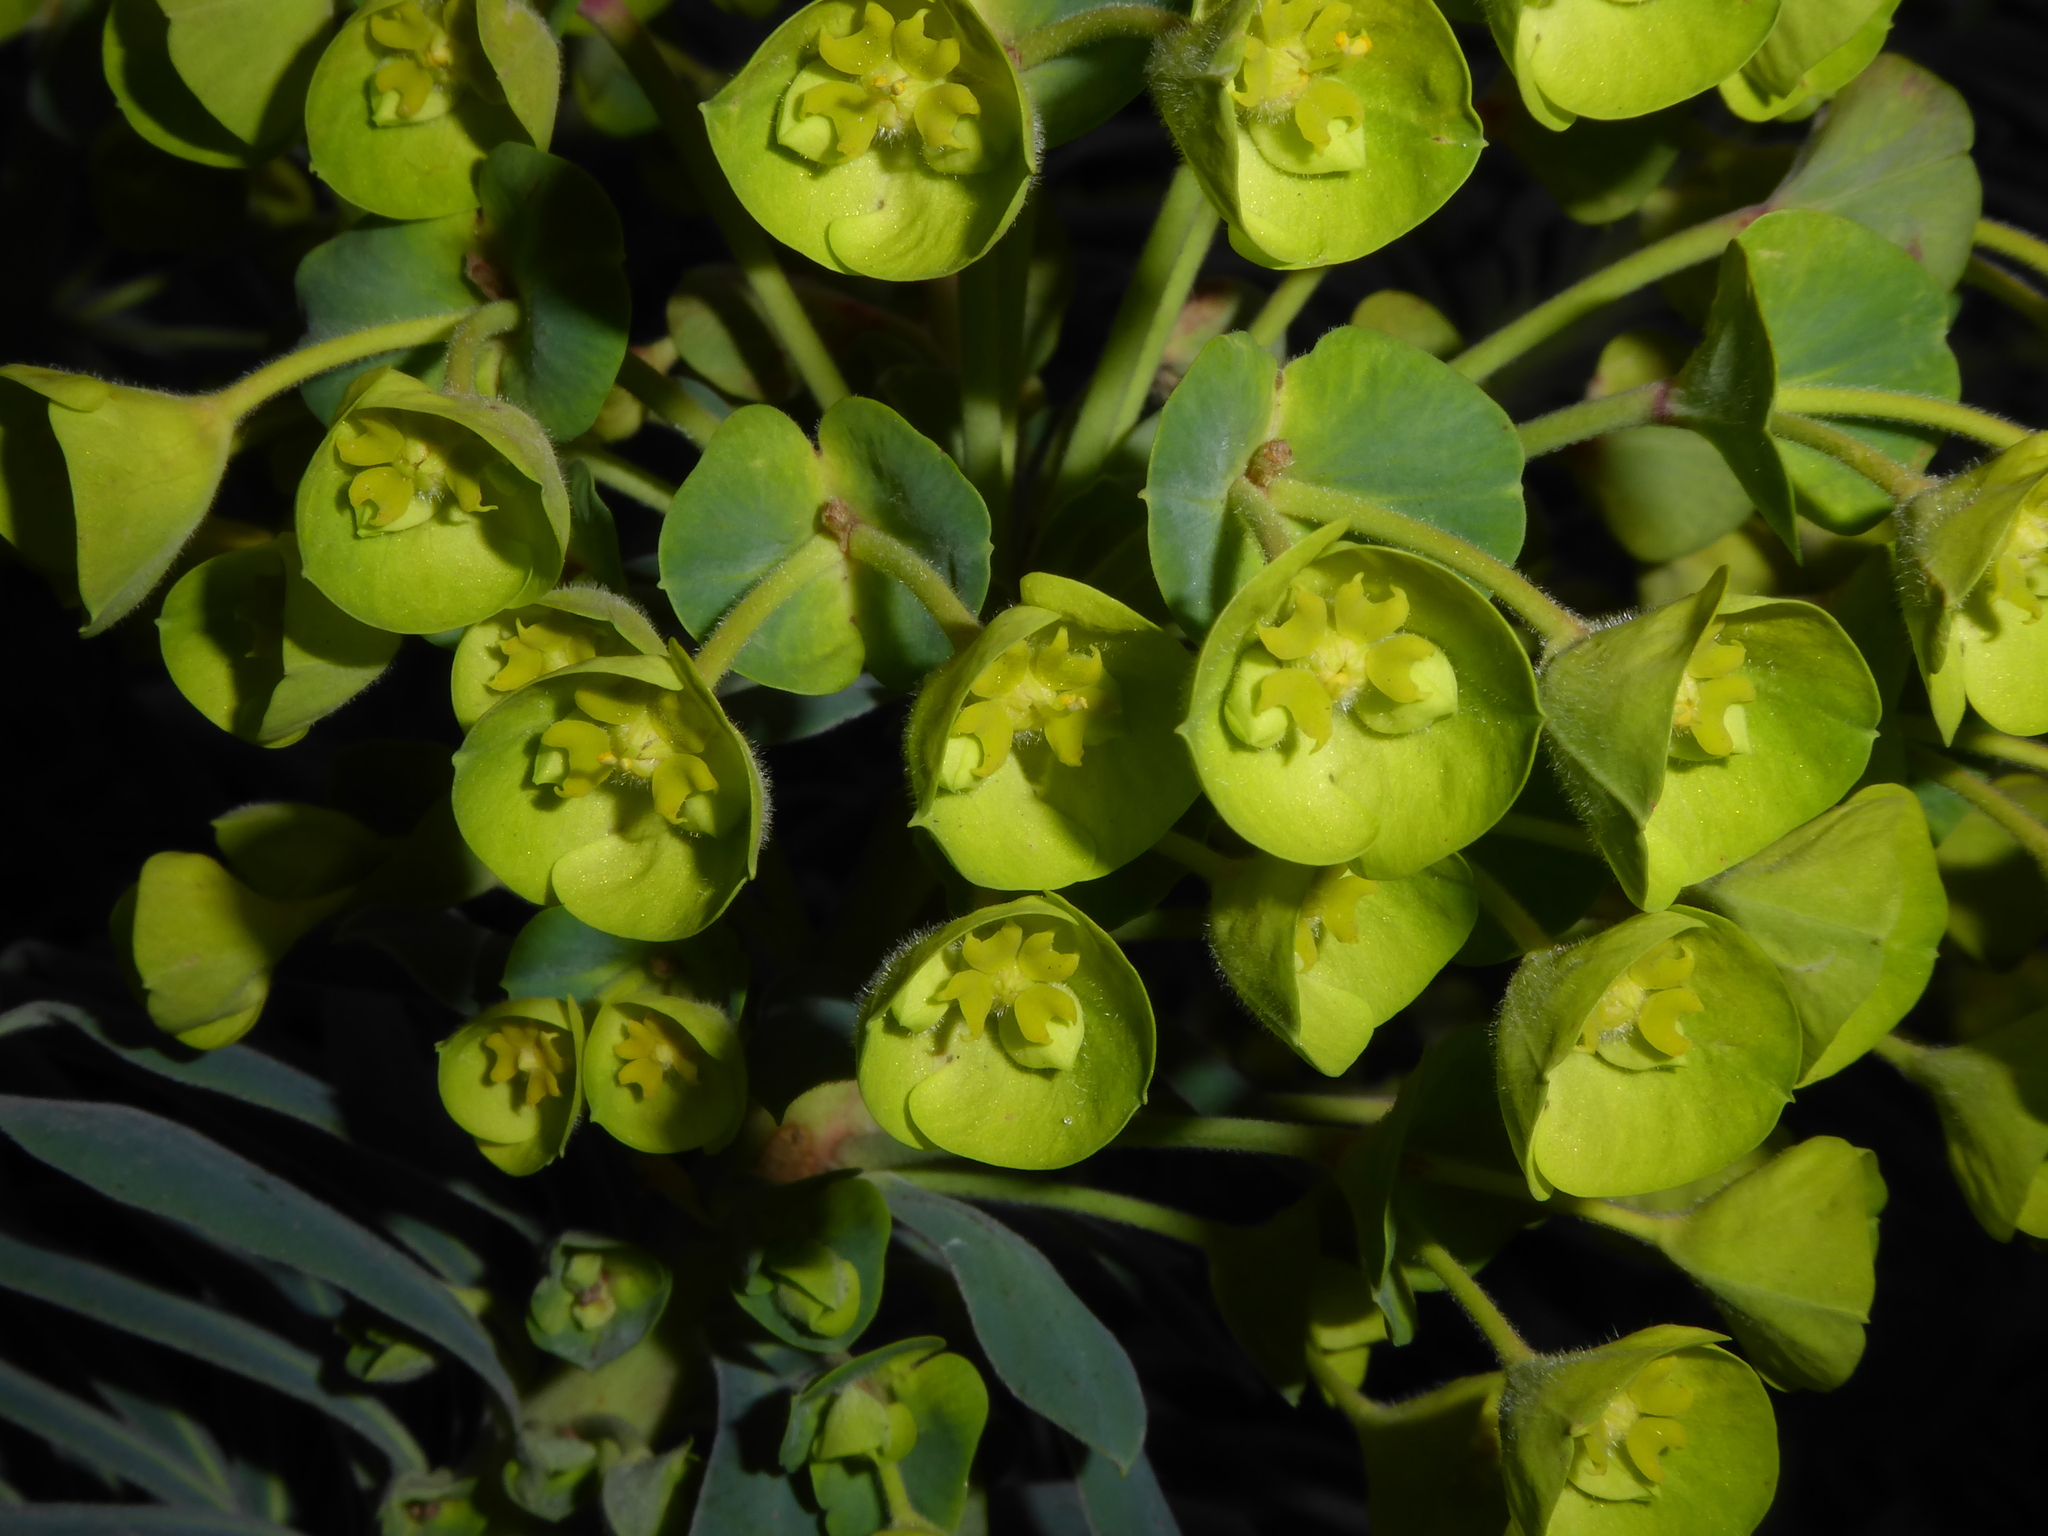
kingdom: Plantae
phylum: Tracheophyta
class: Magnoliopsida
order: Malpighiales
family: Euphorbiaceae
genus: Euphorbia
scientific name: Euphorbia characias
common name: Mediterranean spurge
